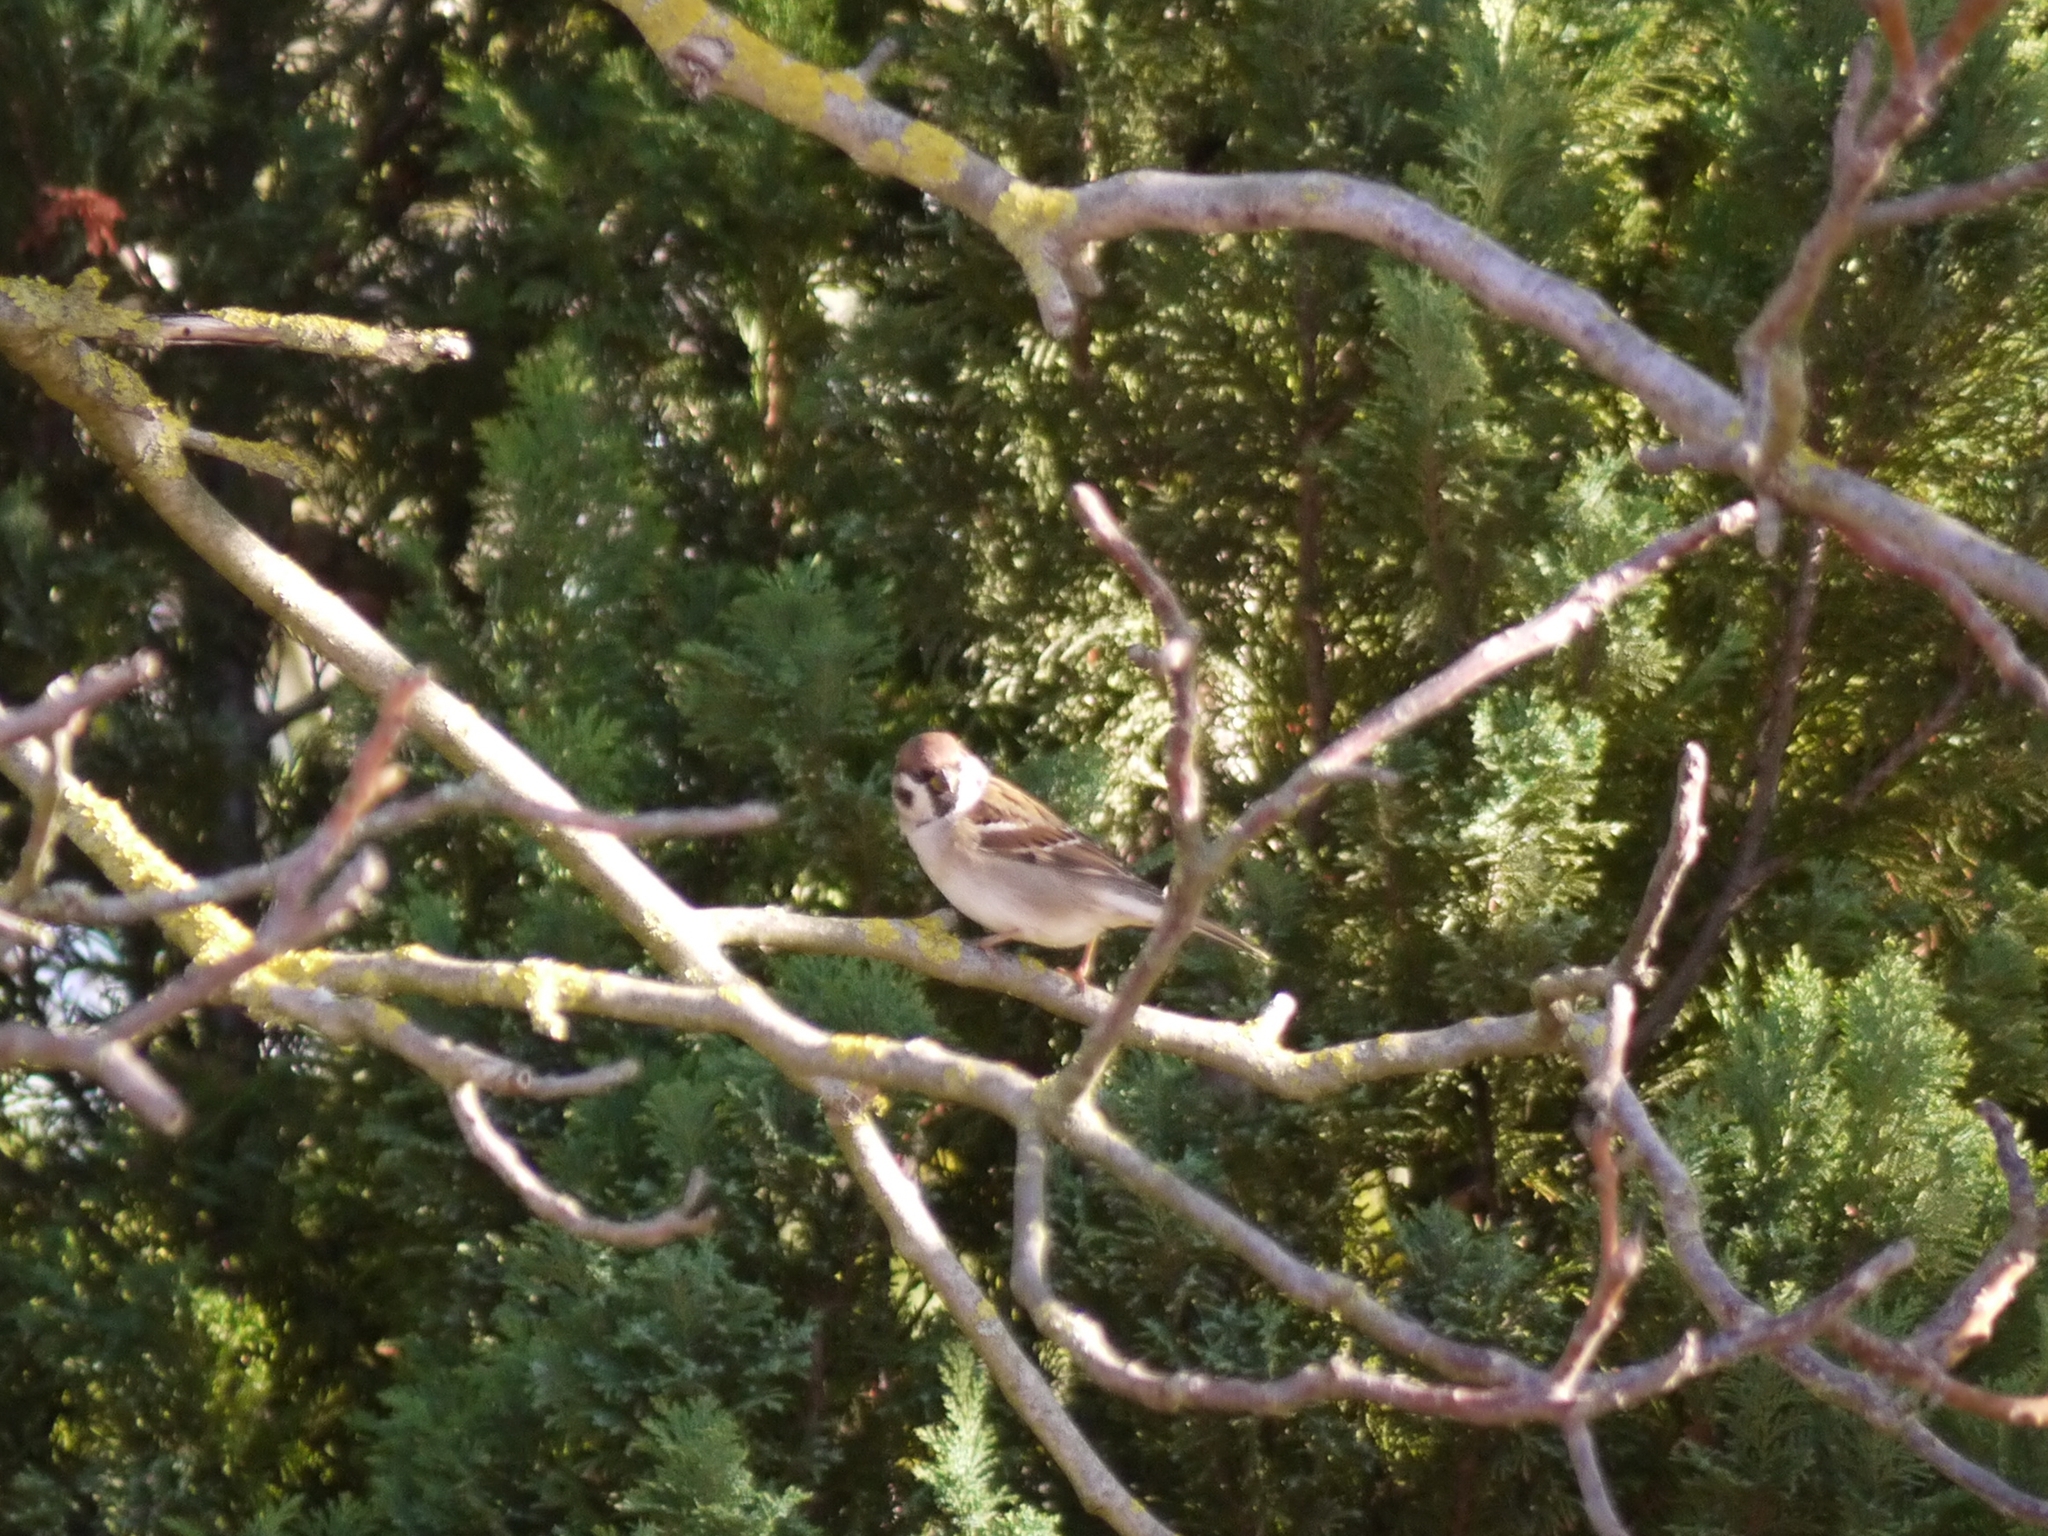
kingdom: Animalia
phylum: Chordata
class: Aves
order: Passeriformes
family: Passeridae
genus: Passer
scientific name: Passer montanus
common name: Eurasian tree sparrow
